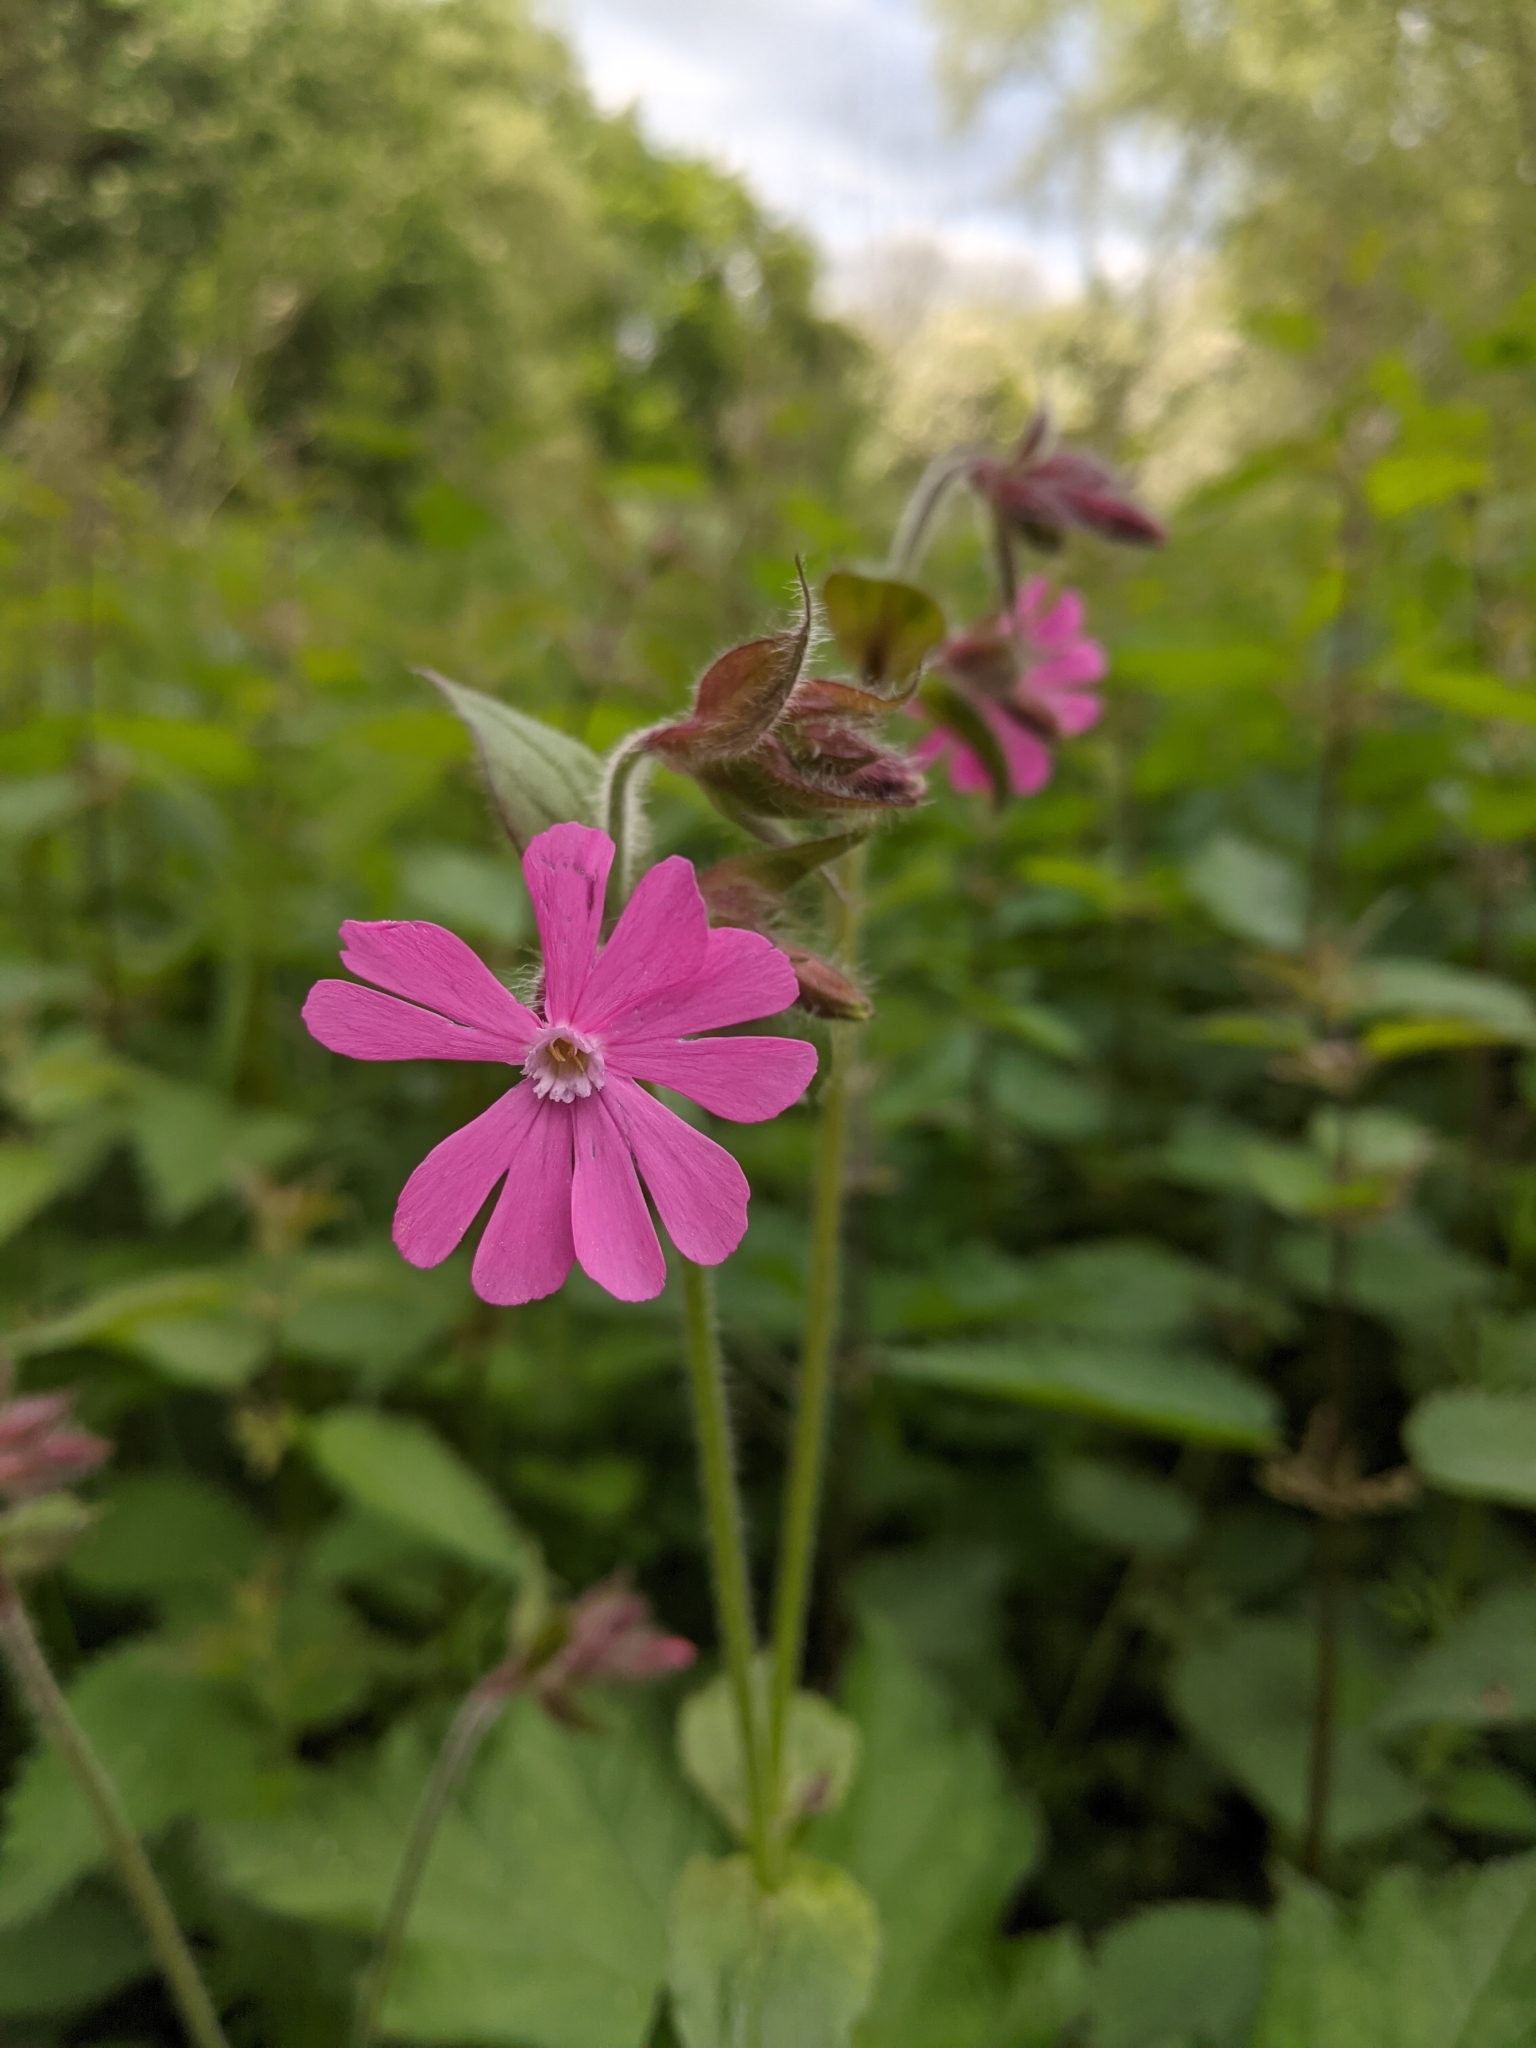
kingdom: Plantae
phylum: Tracheophyta
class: Magnoliopsida
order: Caryophyllales
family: Caryophyllaceae
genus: Silene
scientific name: Silene dioica
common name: Red campion
